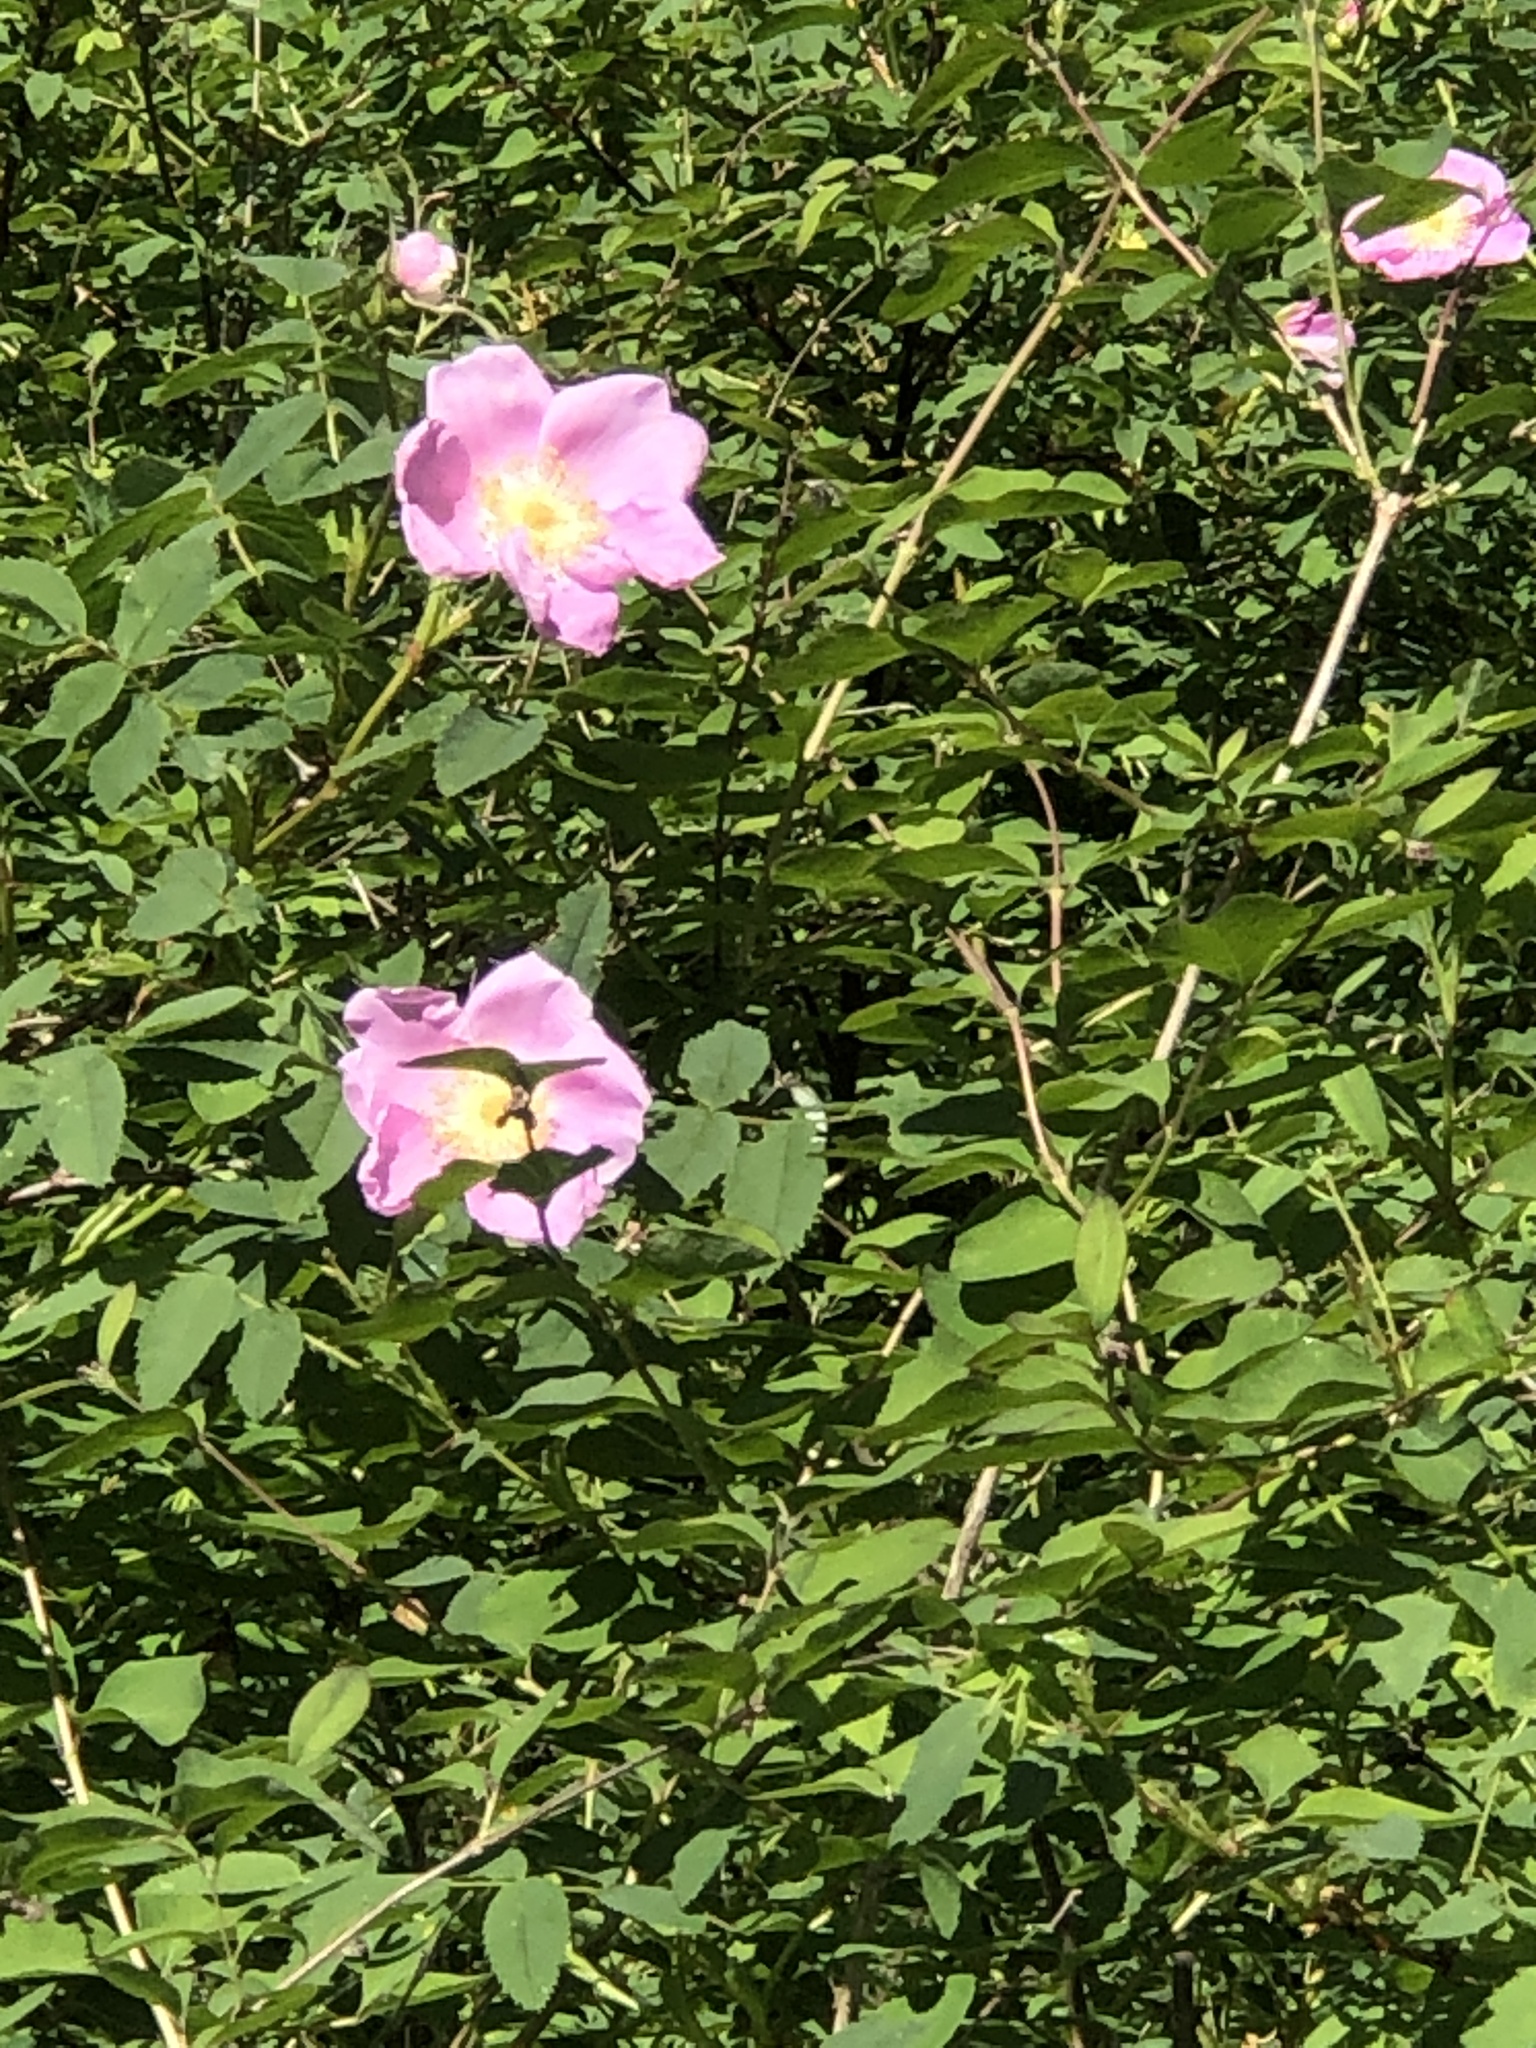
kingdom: Plantae
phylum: Tracheophyta
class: Magnoliopsida
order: Rosales
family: Rosaceae
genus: Rosa
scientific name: Rosa nutkana
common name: Nootka rose
